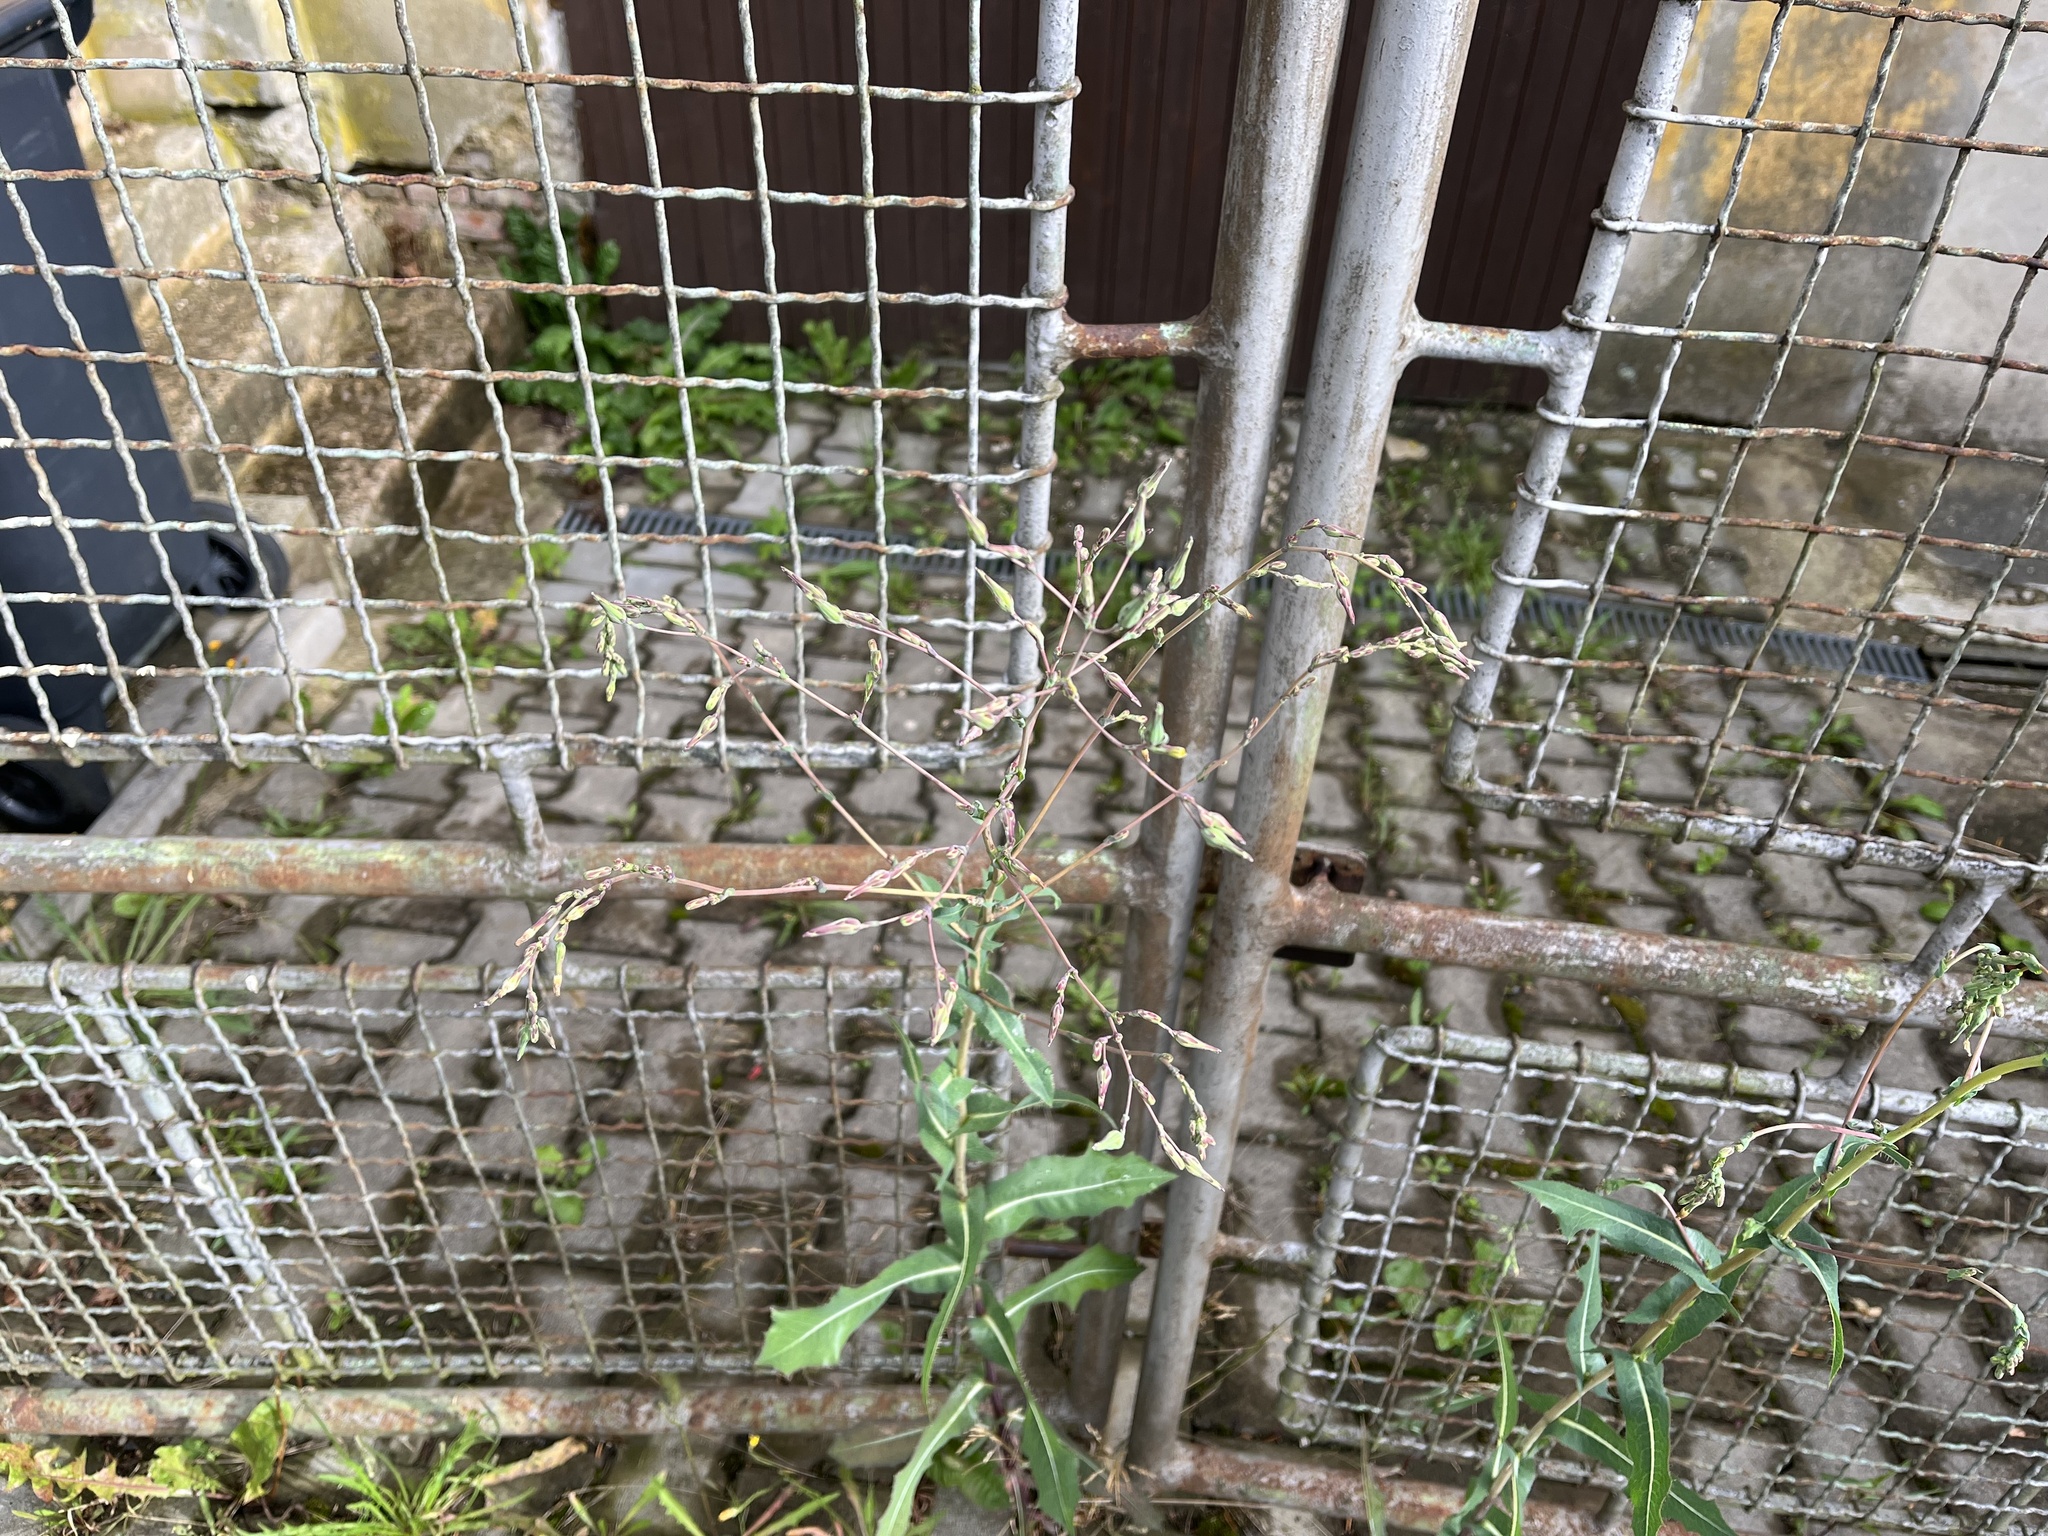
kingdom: Plantae
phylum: Tracheophyta
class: Magnoliopsida
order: Asterales
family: Asteraceae
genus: Lactuca
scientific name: Lactuca serriola
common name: Prickly lettuce
